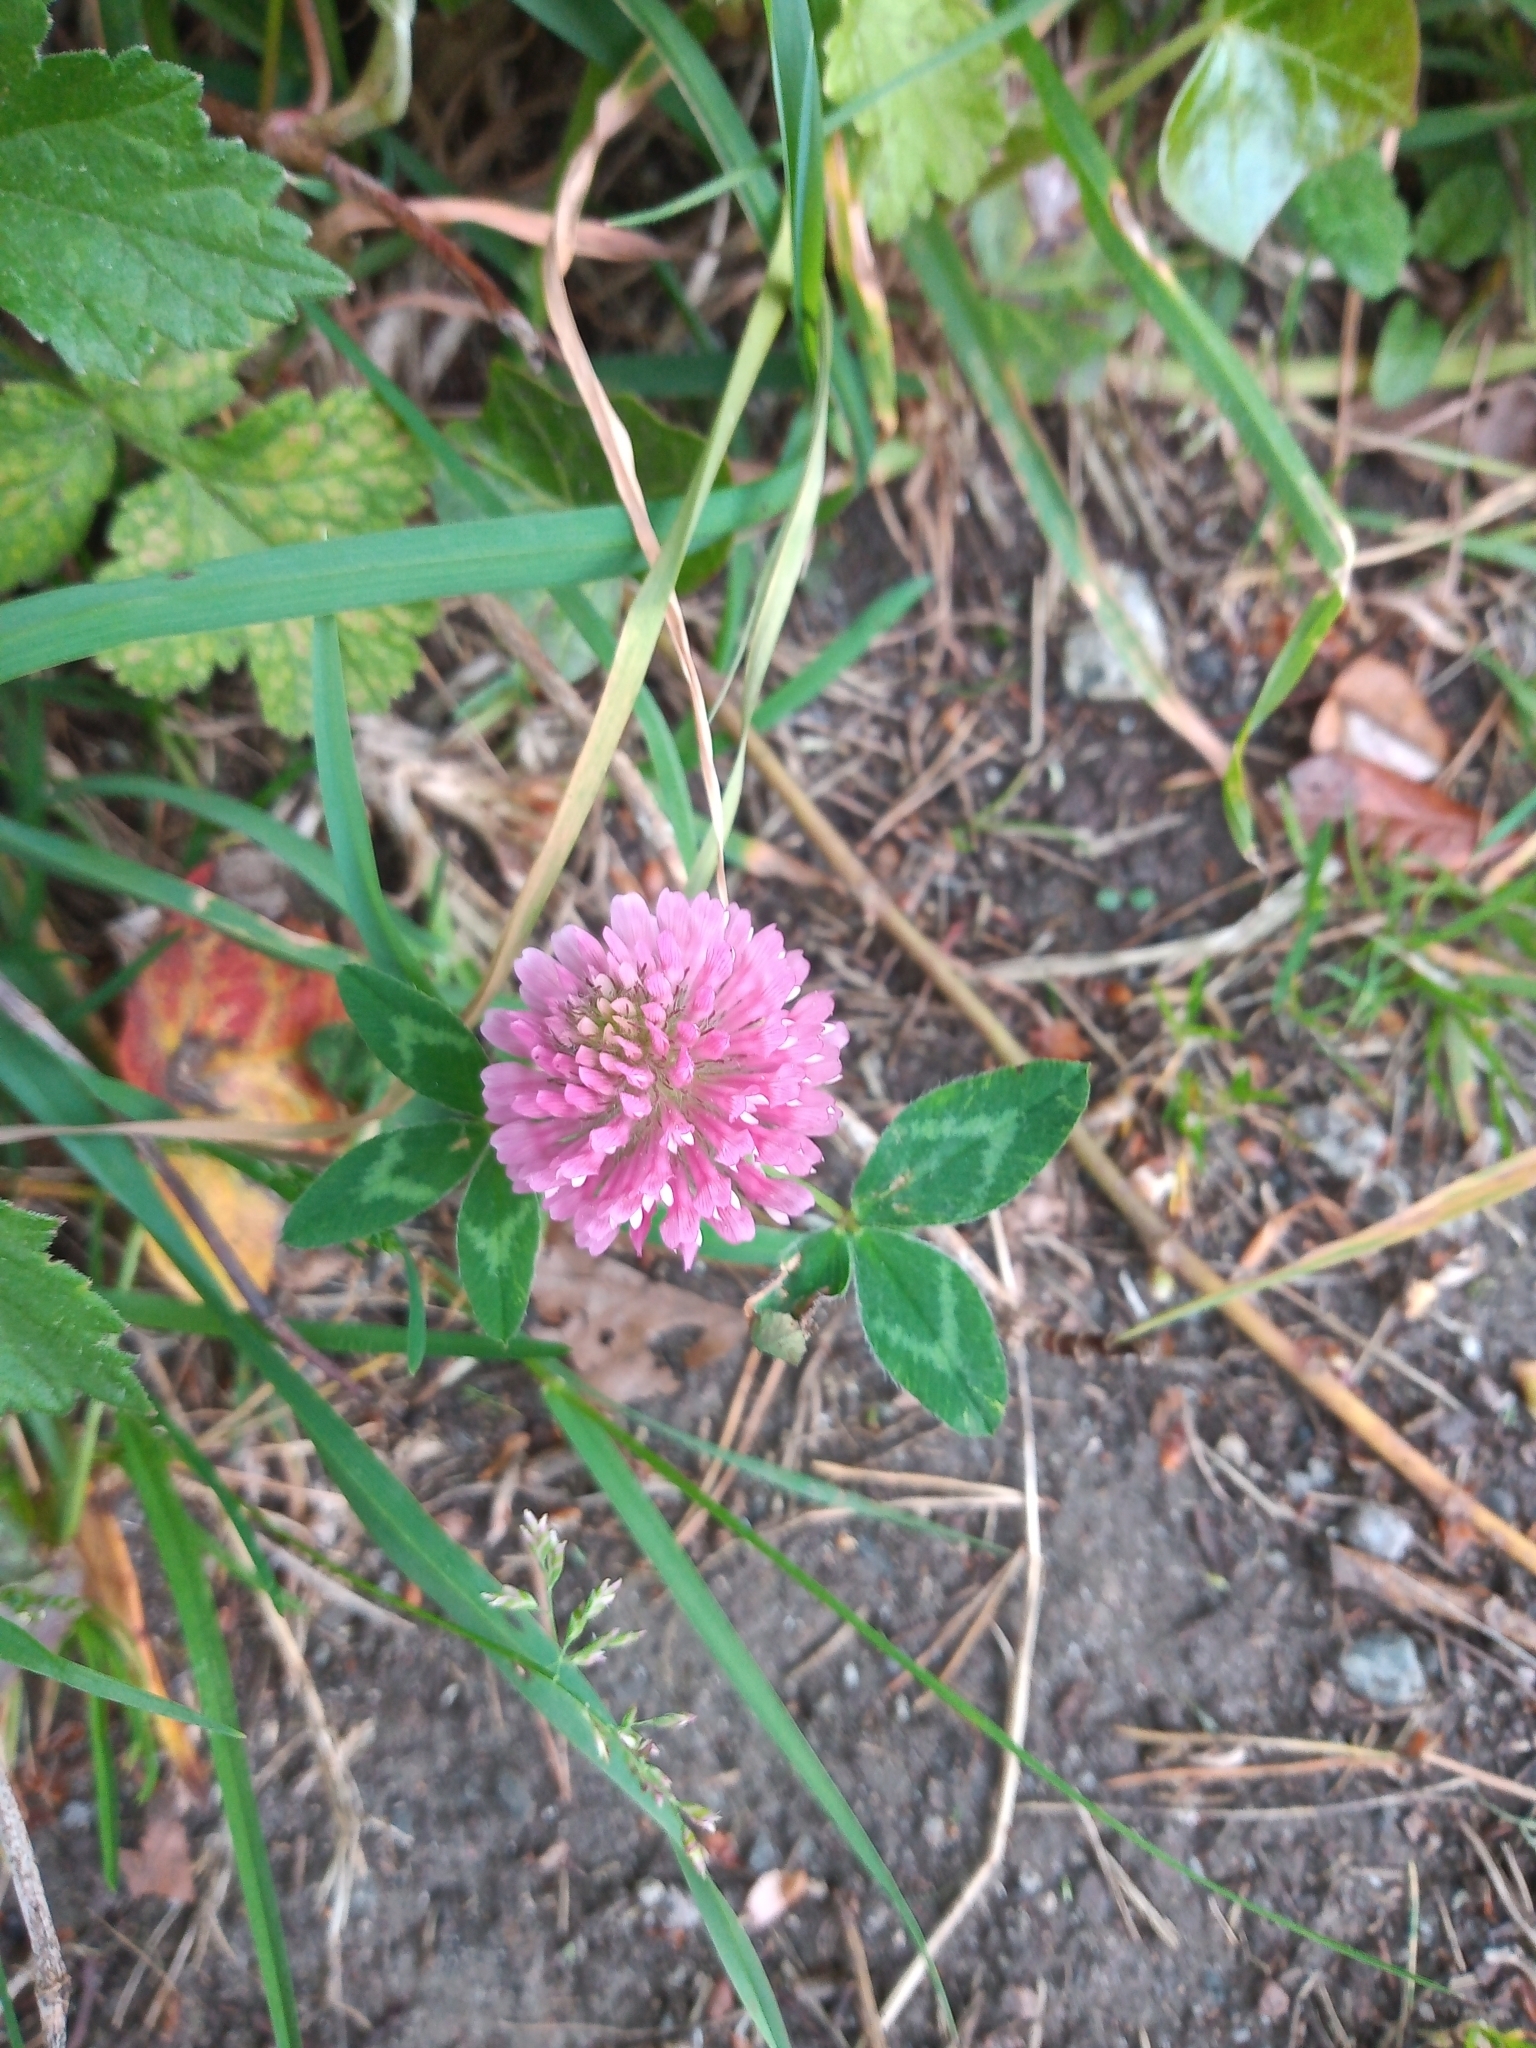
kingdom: Plantae
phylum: Tracheophyta
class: Magnoliopsida
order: Fabales
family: Fabaceae
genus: Trifolium
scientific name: Trifolium pratense
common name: Red clover
